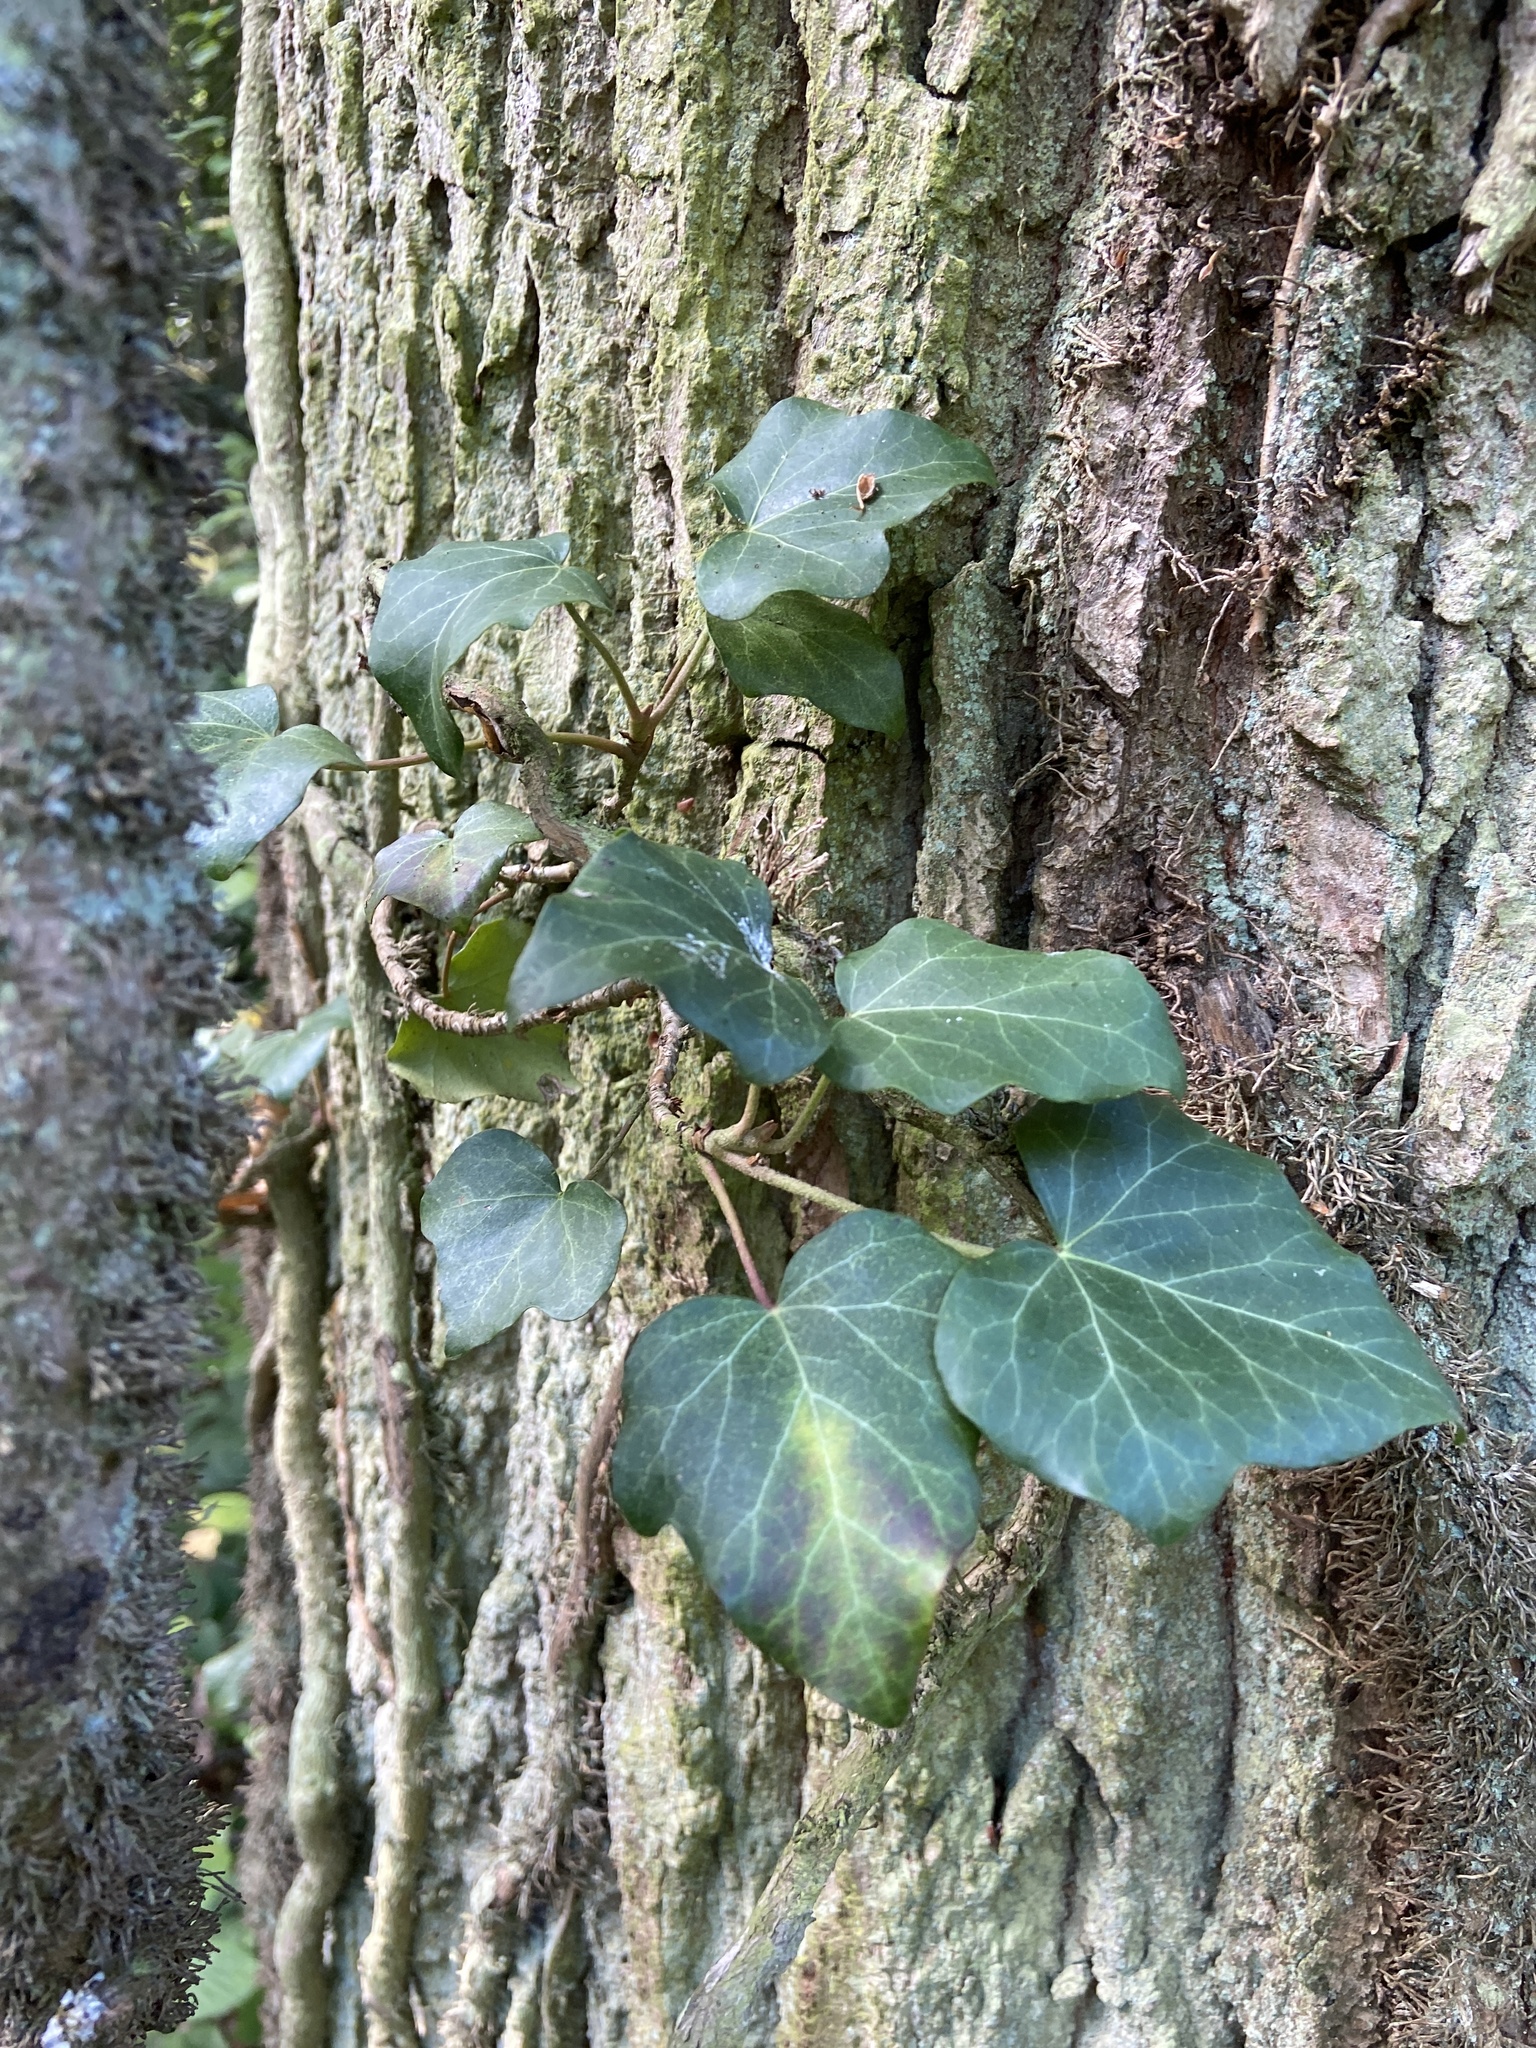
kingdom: Plantae
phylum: Tracheophyta
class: Magnoliopsida
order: Apiales
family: Araliaceae
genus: Hedera
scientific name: Hedera helix
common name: Ivy
